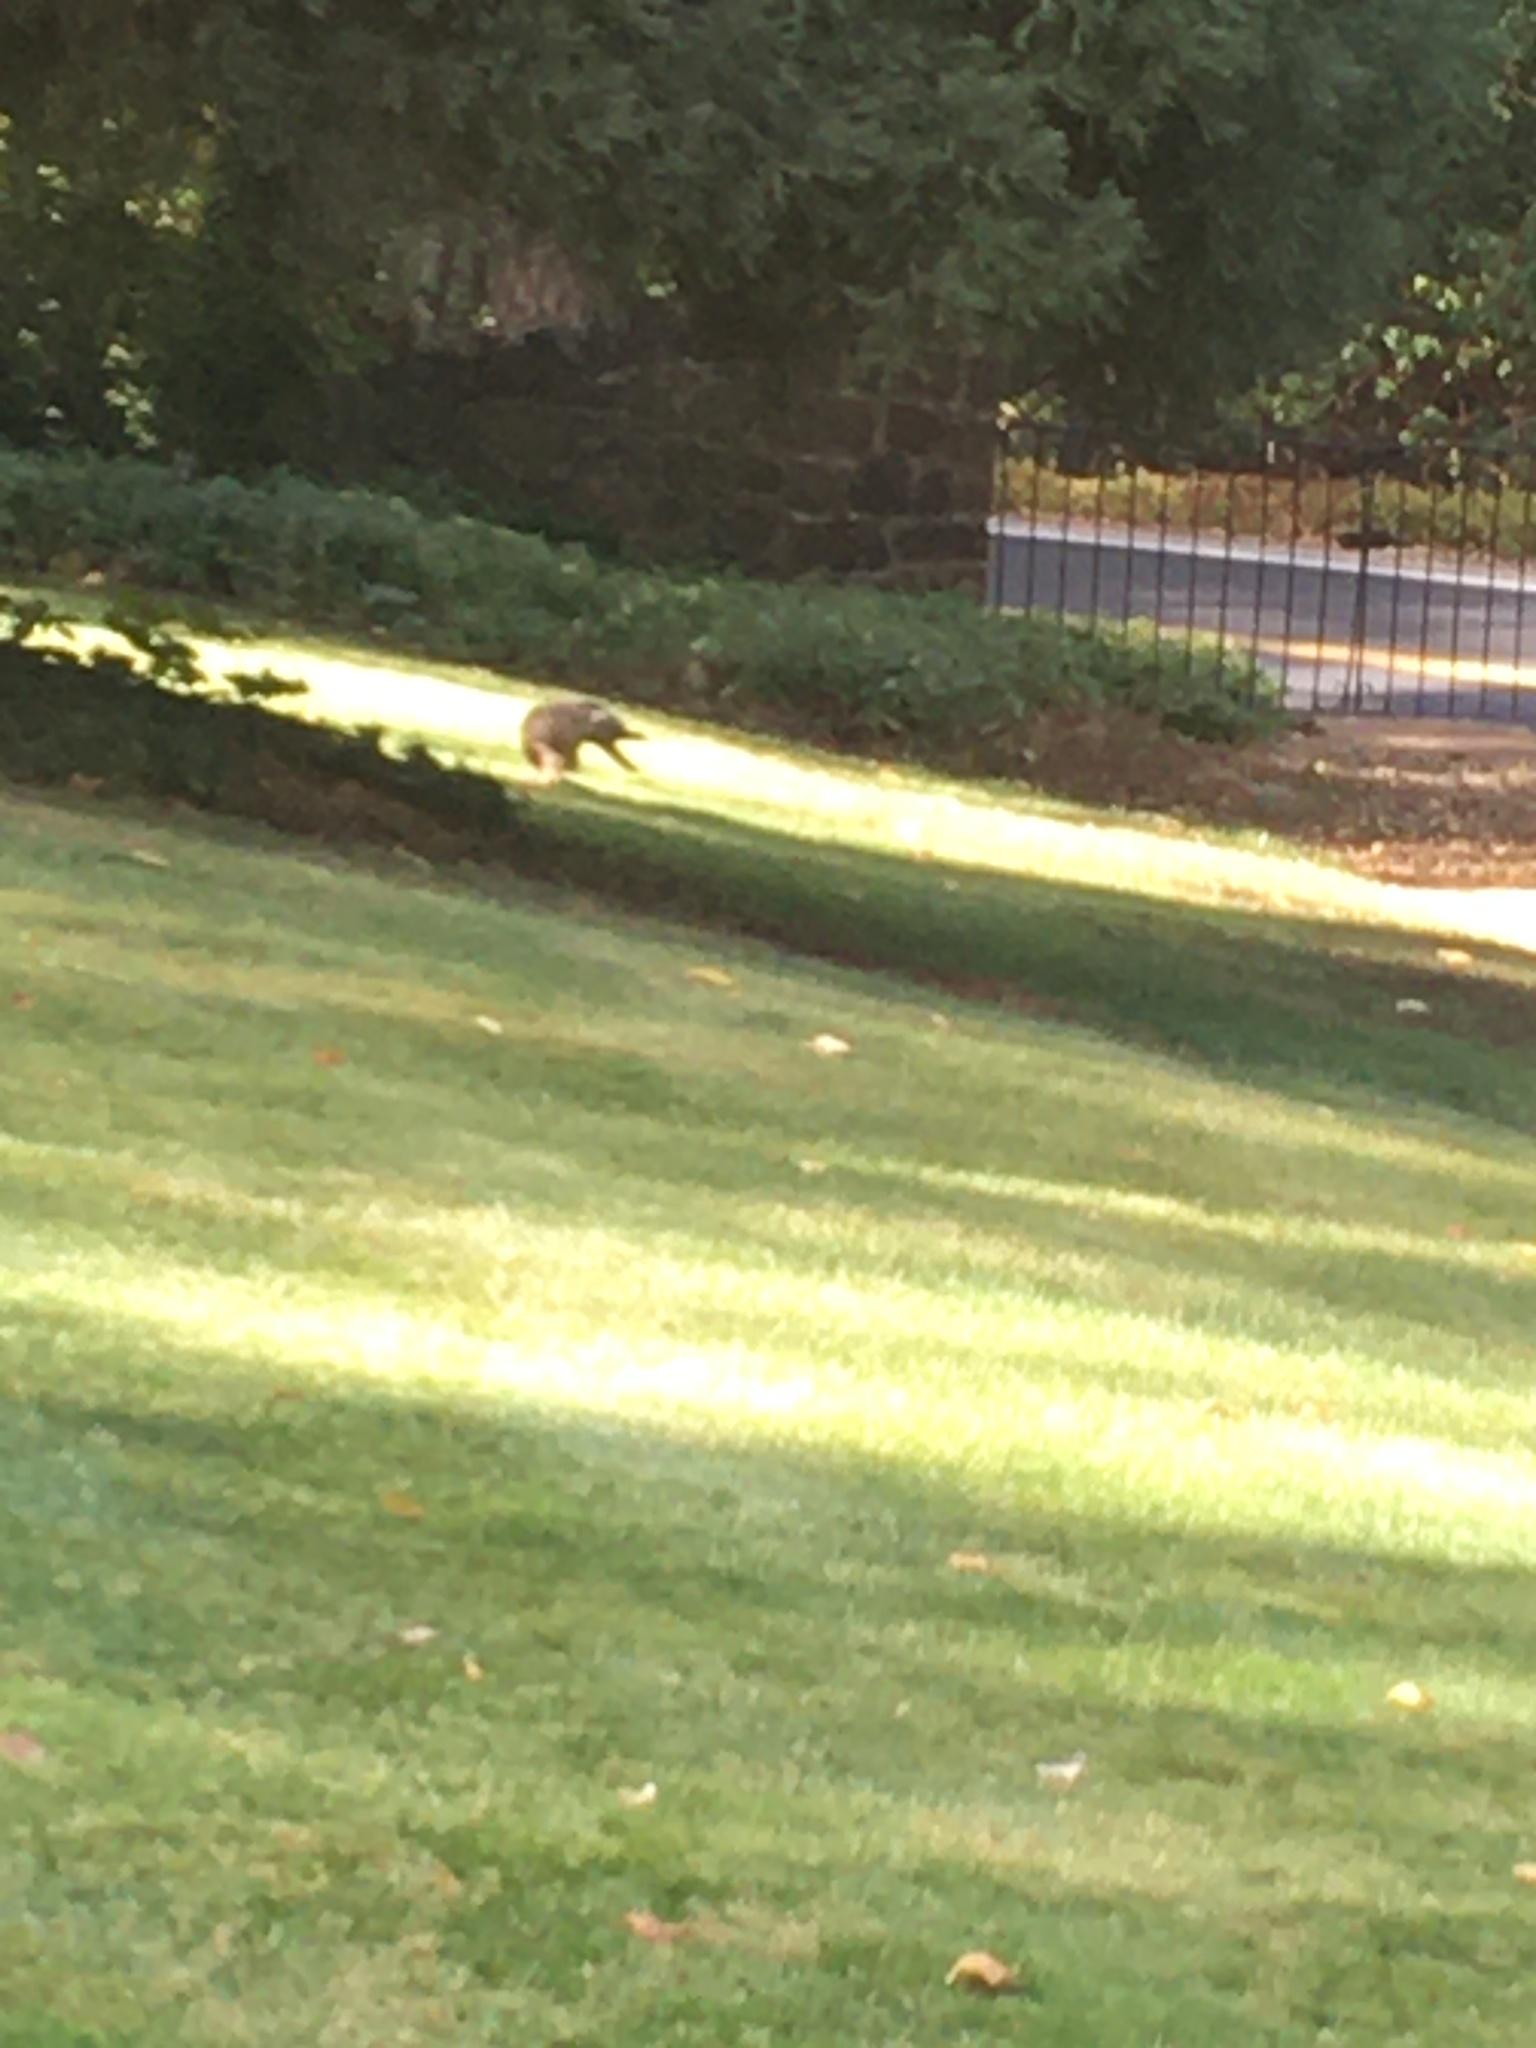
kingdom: Animalia
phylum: Chordata
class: Aves
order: Accipitriformes
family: Accipitridae
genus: Buteo
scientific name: Buteo jamaicensis
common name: Red-tailed hawk
